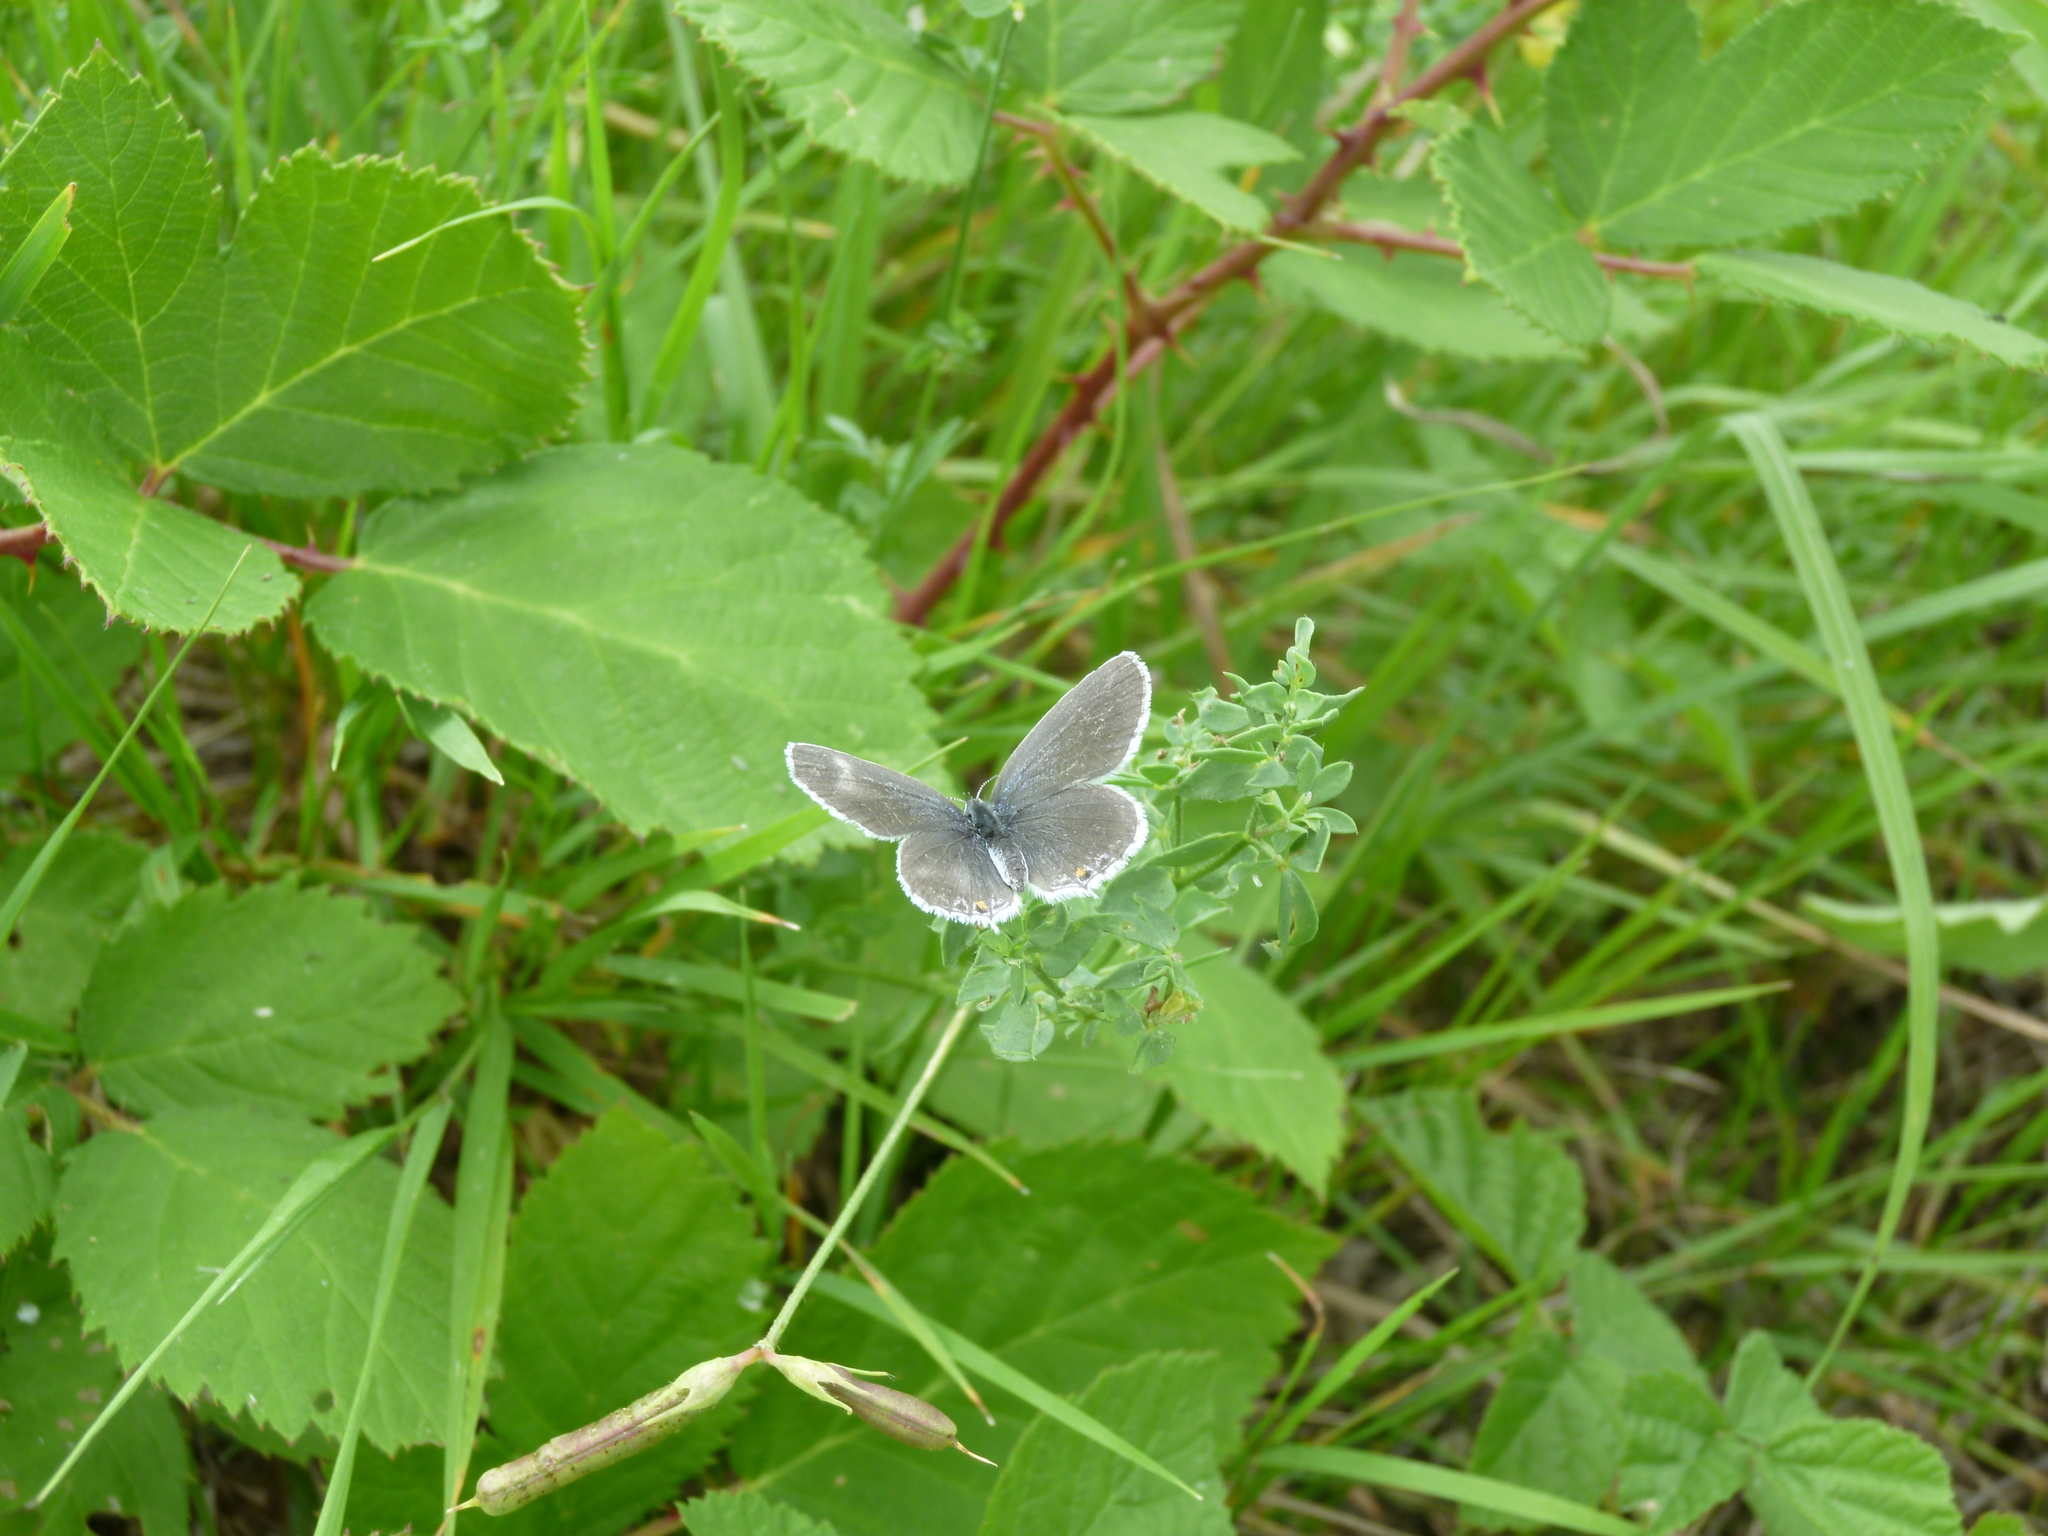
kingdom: Animalia
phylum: Arthropoda
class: Insecta
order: Lepidoptera
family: Lycaenidae
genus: Elkalyce
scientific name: Elkalyce argiades
